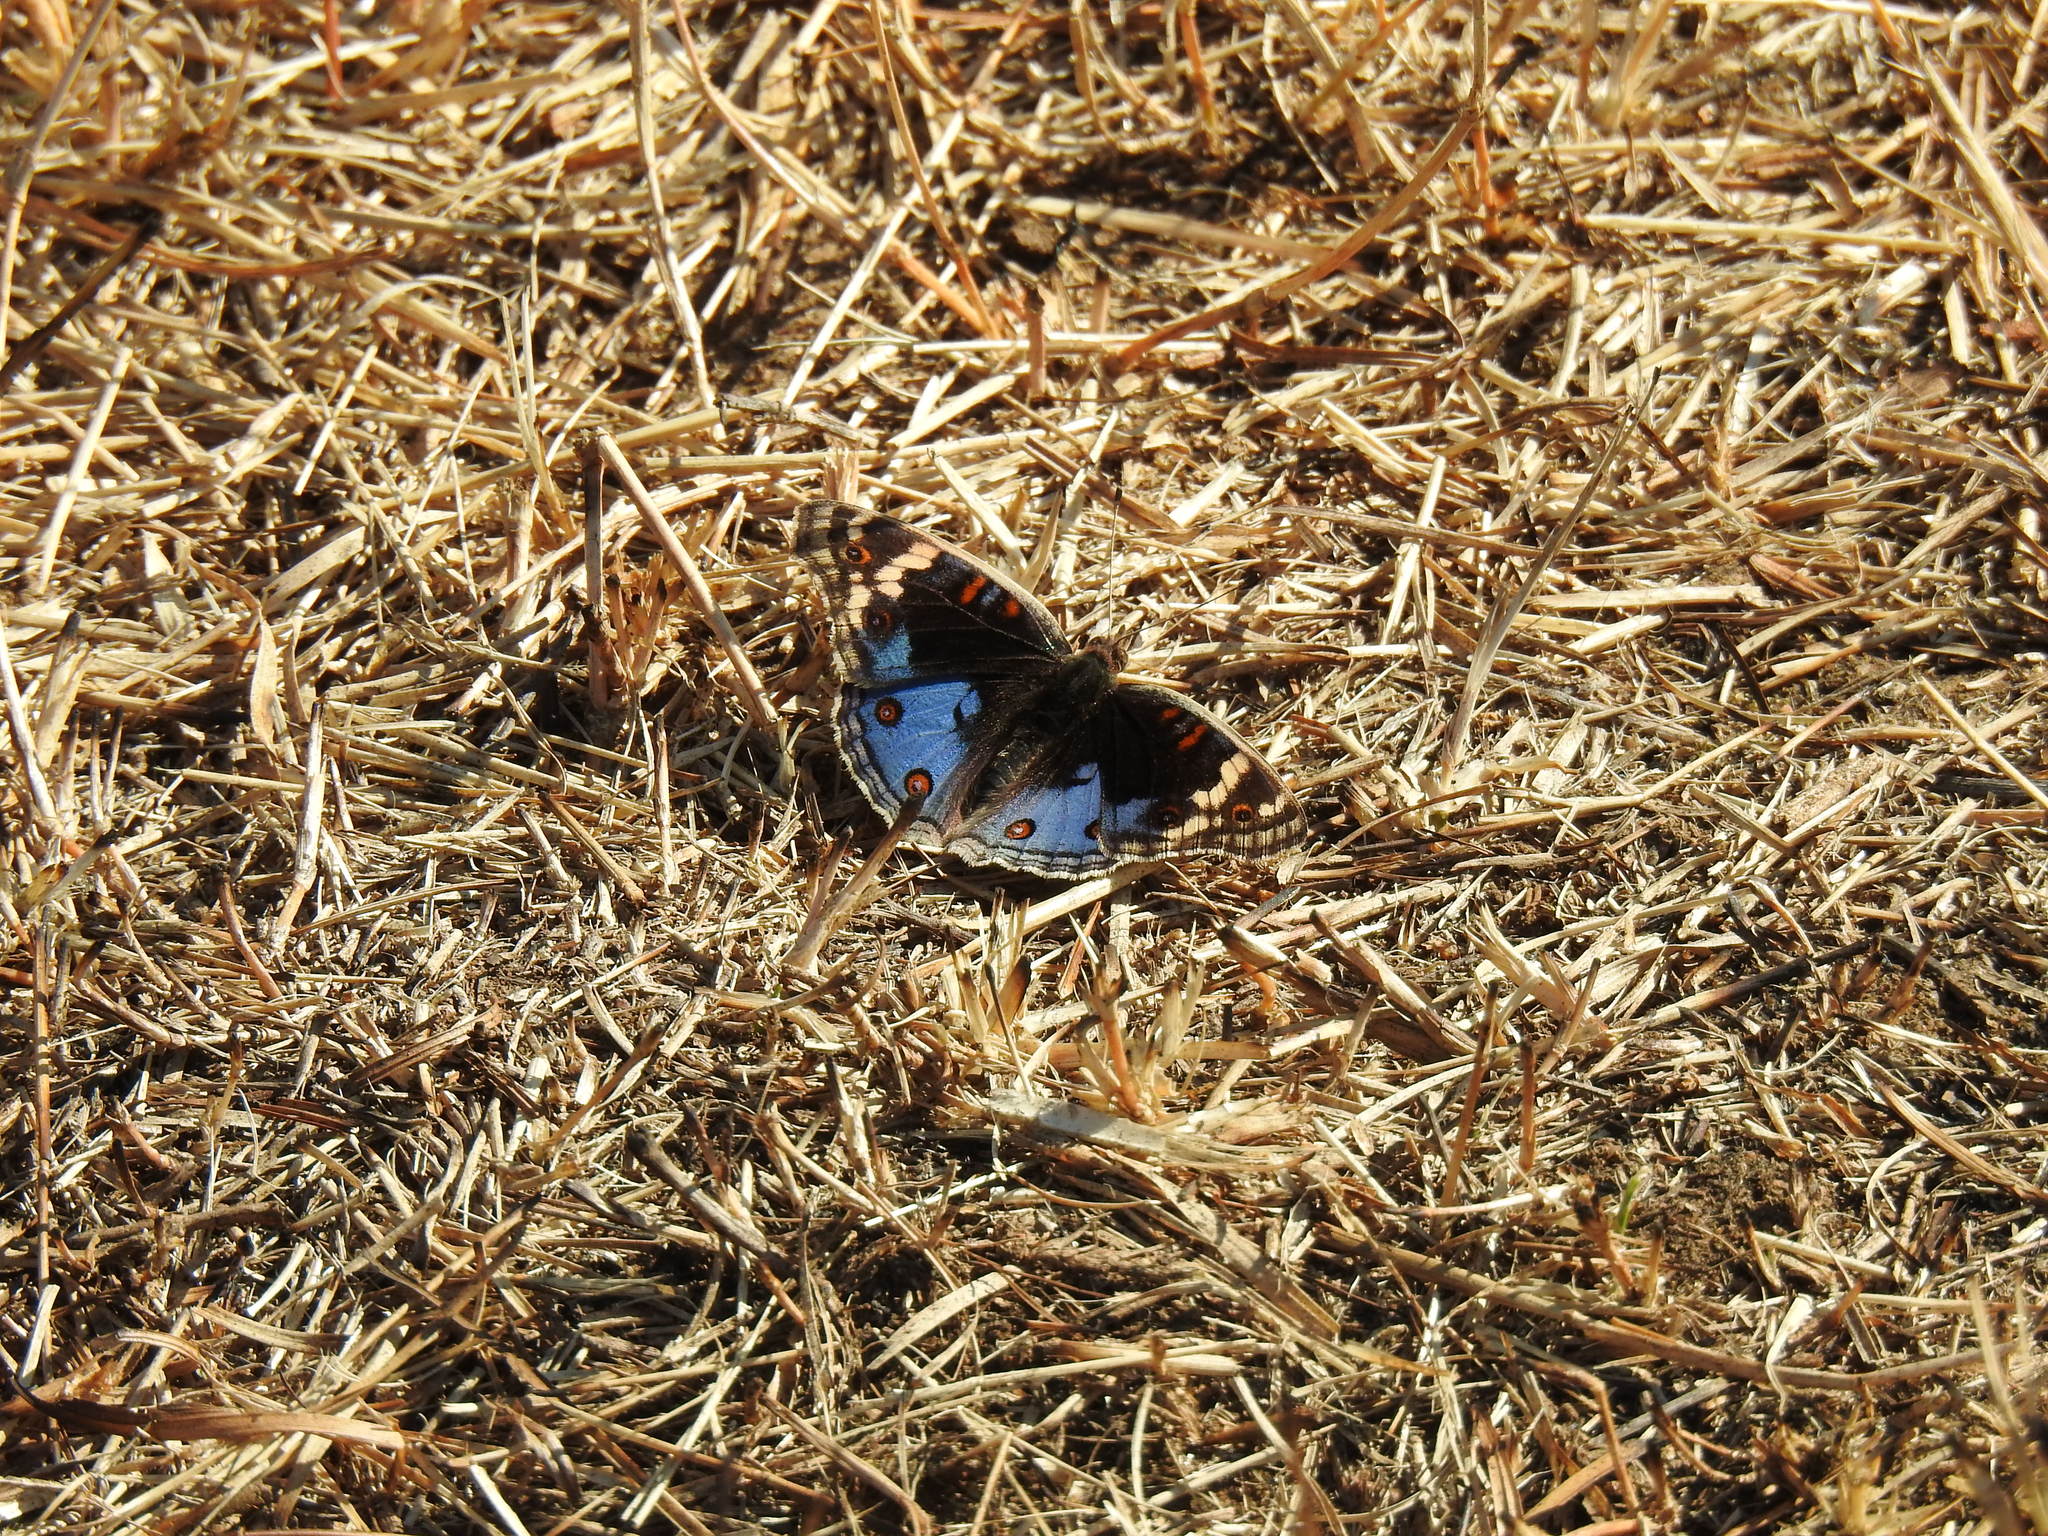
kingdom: Animalia
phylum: Arthropoda
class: Insecta
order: Lepidoptera
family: Nymphalidae
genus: Junonia
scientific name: Junonia orithya
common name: Blue pansy
